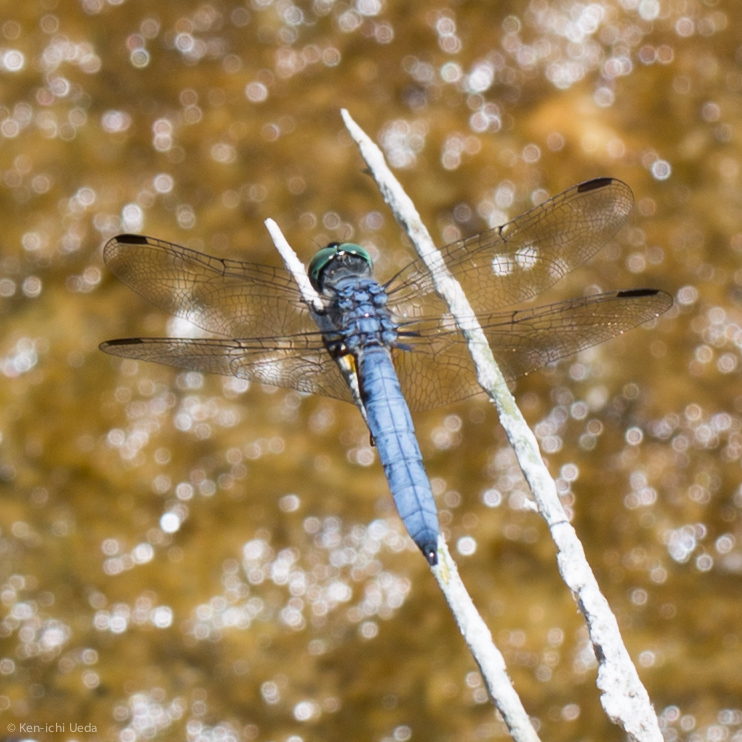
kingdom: Animalia
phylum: Arthropoda
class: Insecta
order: Odonata
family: Libellulidae
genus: Pachydiplax
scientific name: Pachydiplax longipennis
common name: Blue dasher
